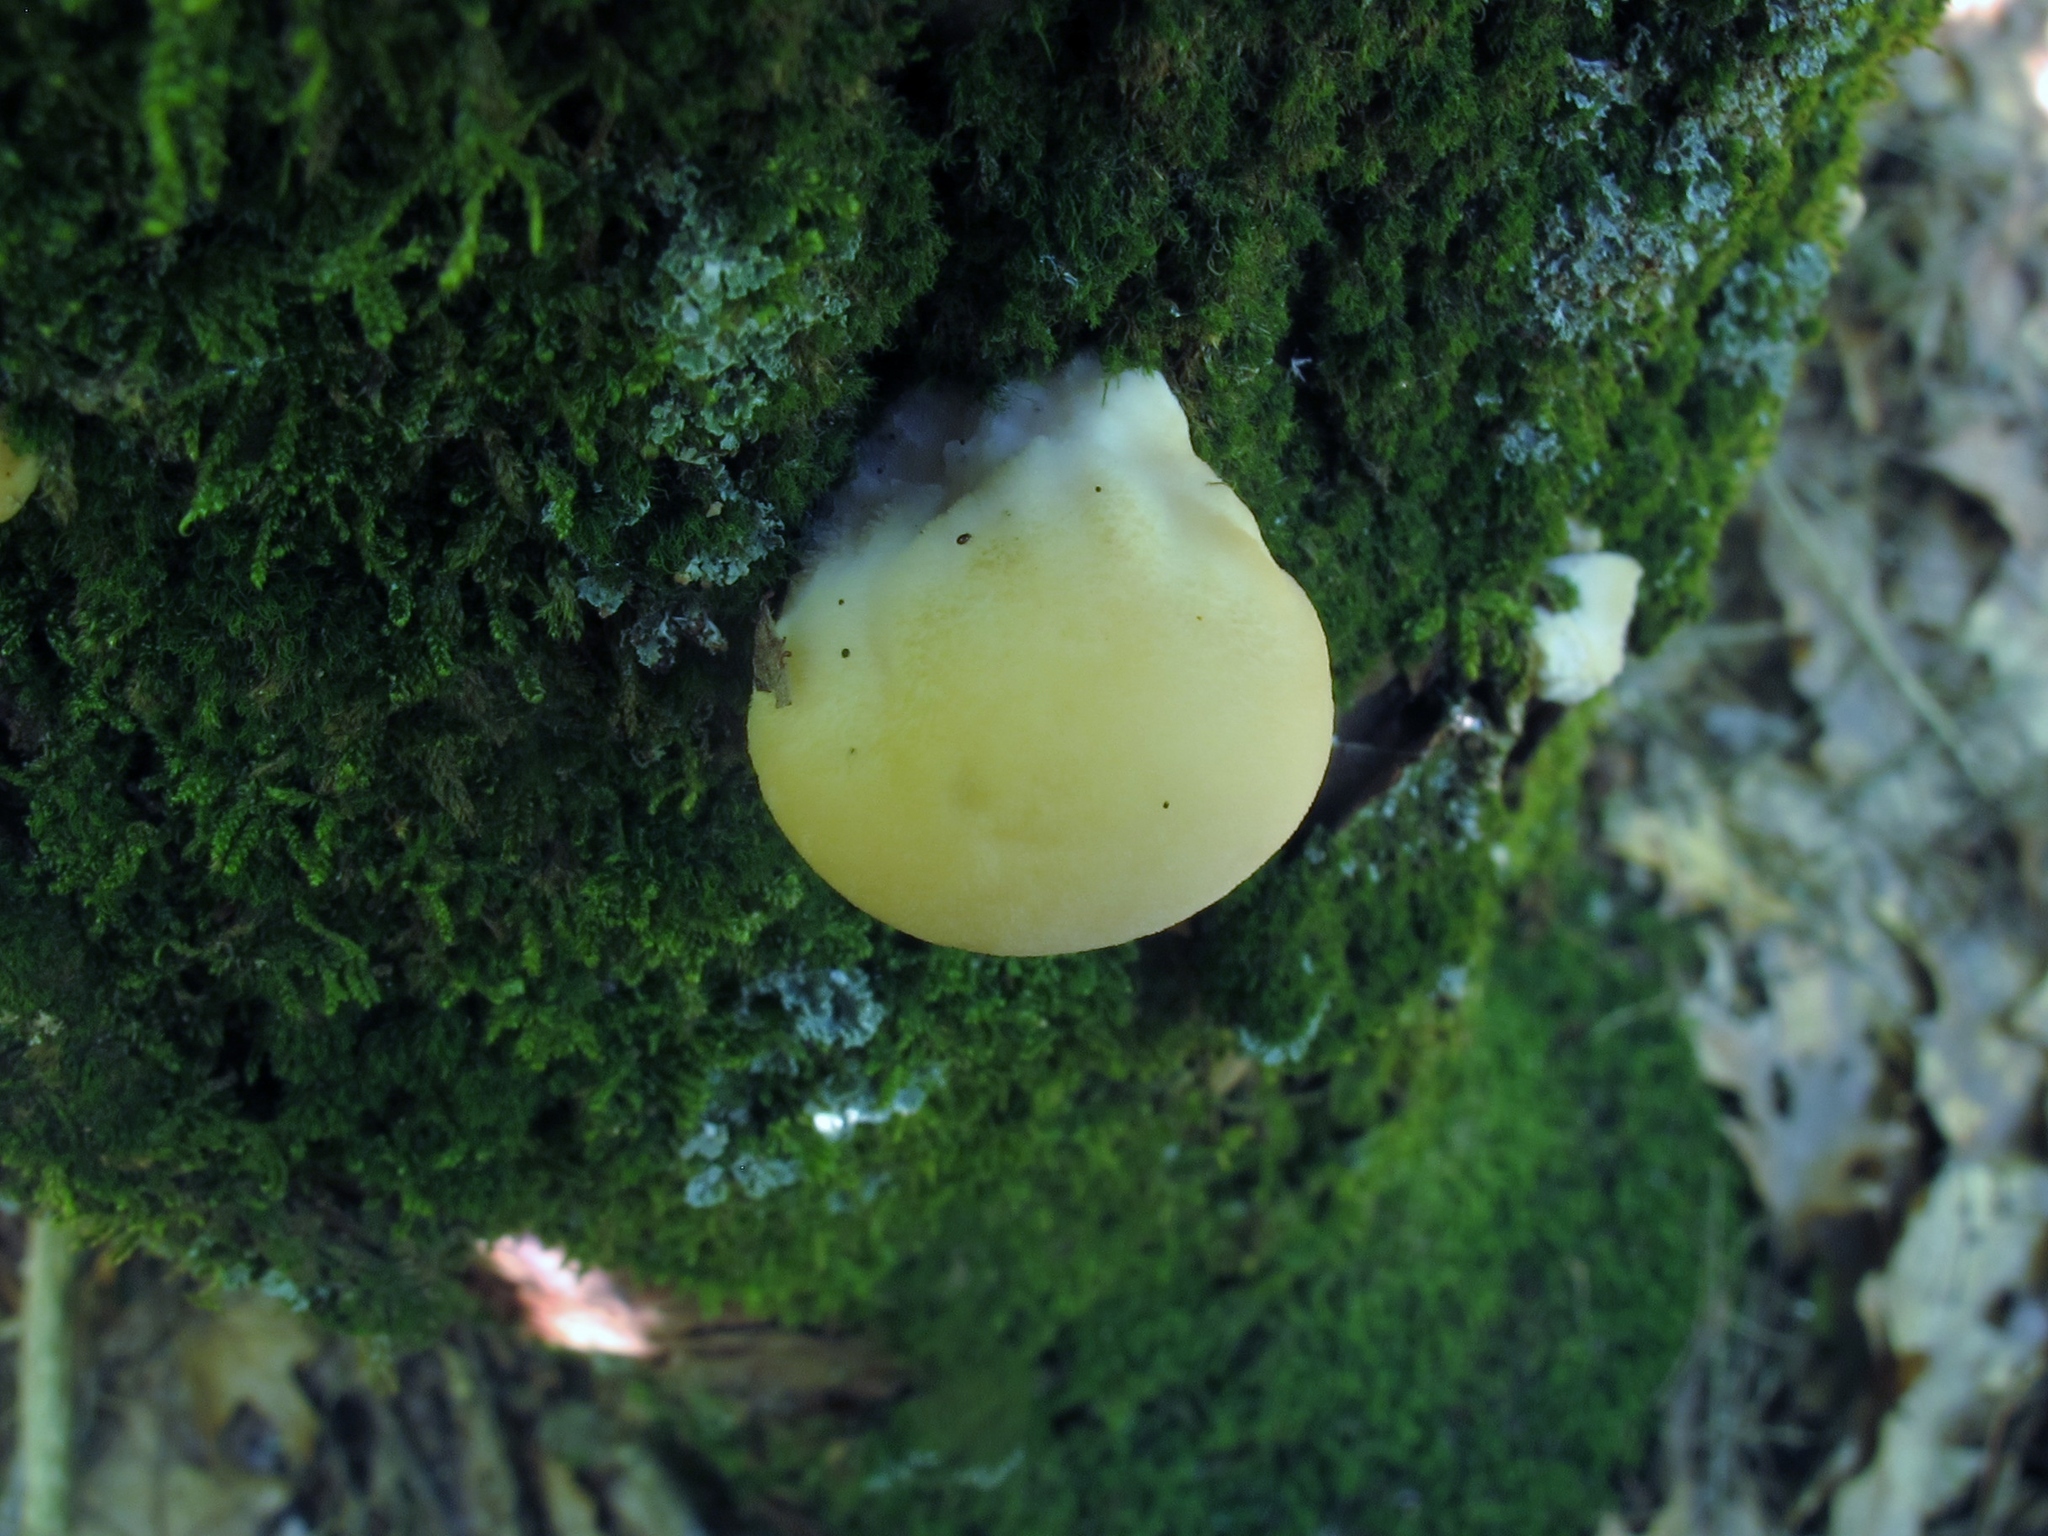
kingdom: Fungi
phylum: Basidiomycota
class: Agaricomycetes
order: Polyporales
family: Polyporaceae
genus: Cryptoporus
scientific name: Cryptoporus volvatus
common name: Veiled polypore
